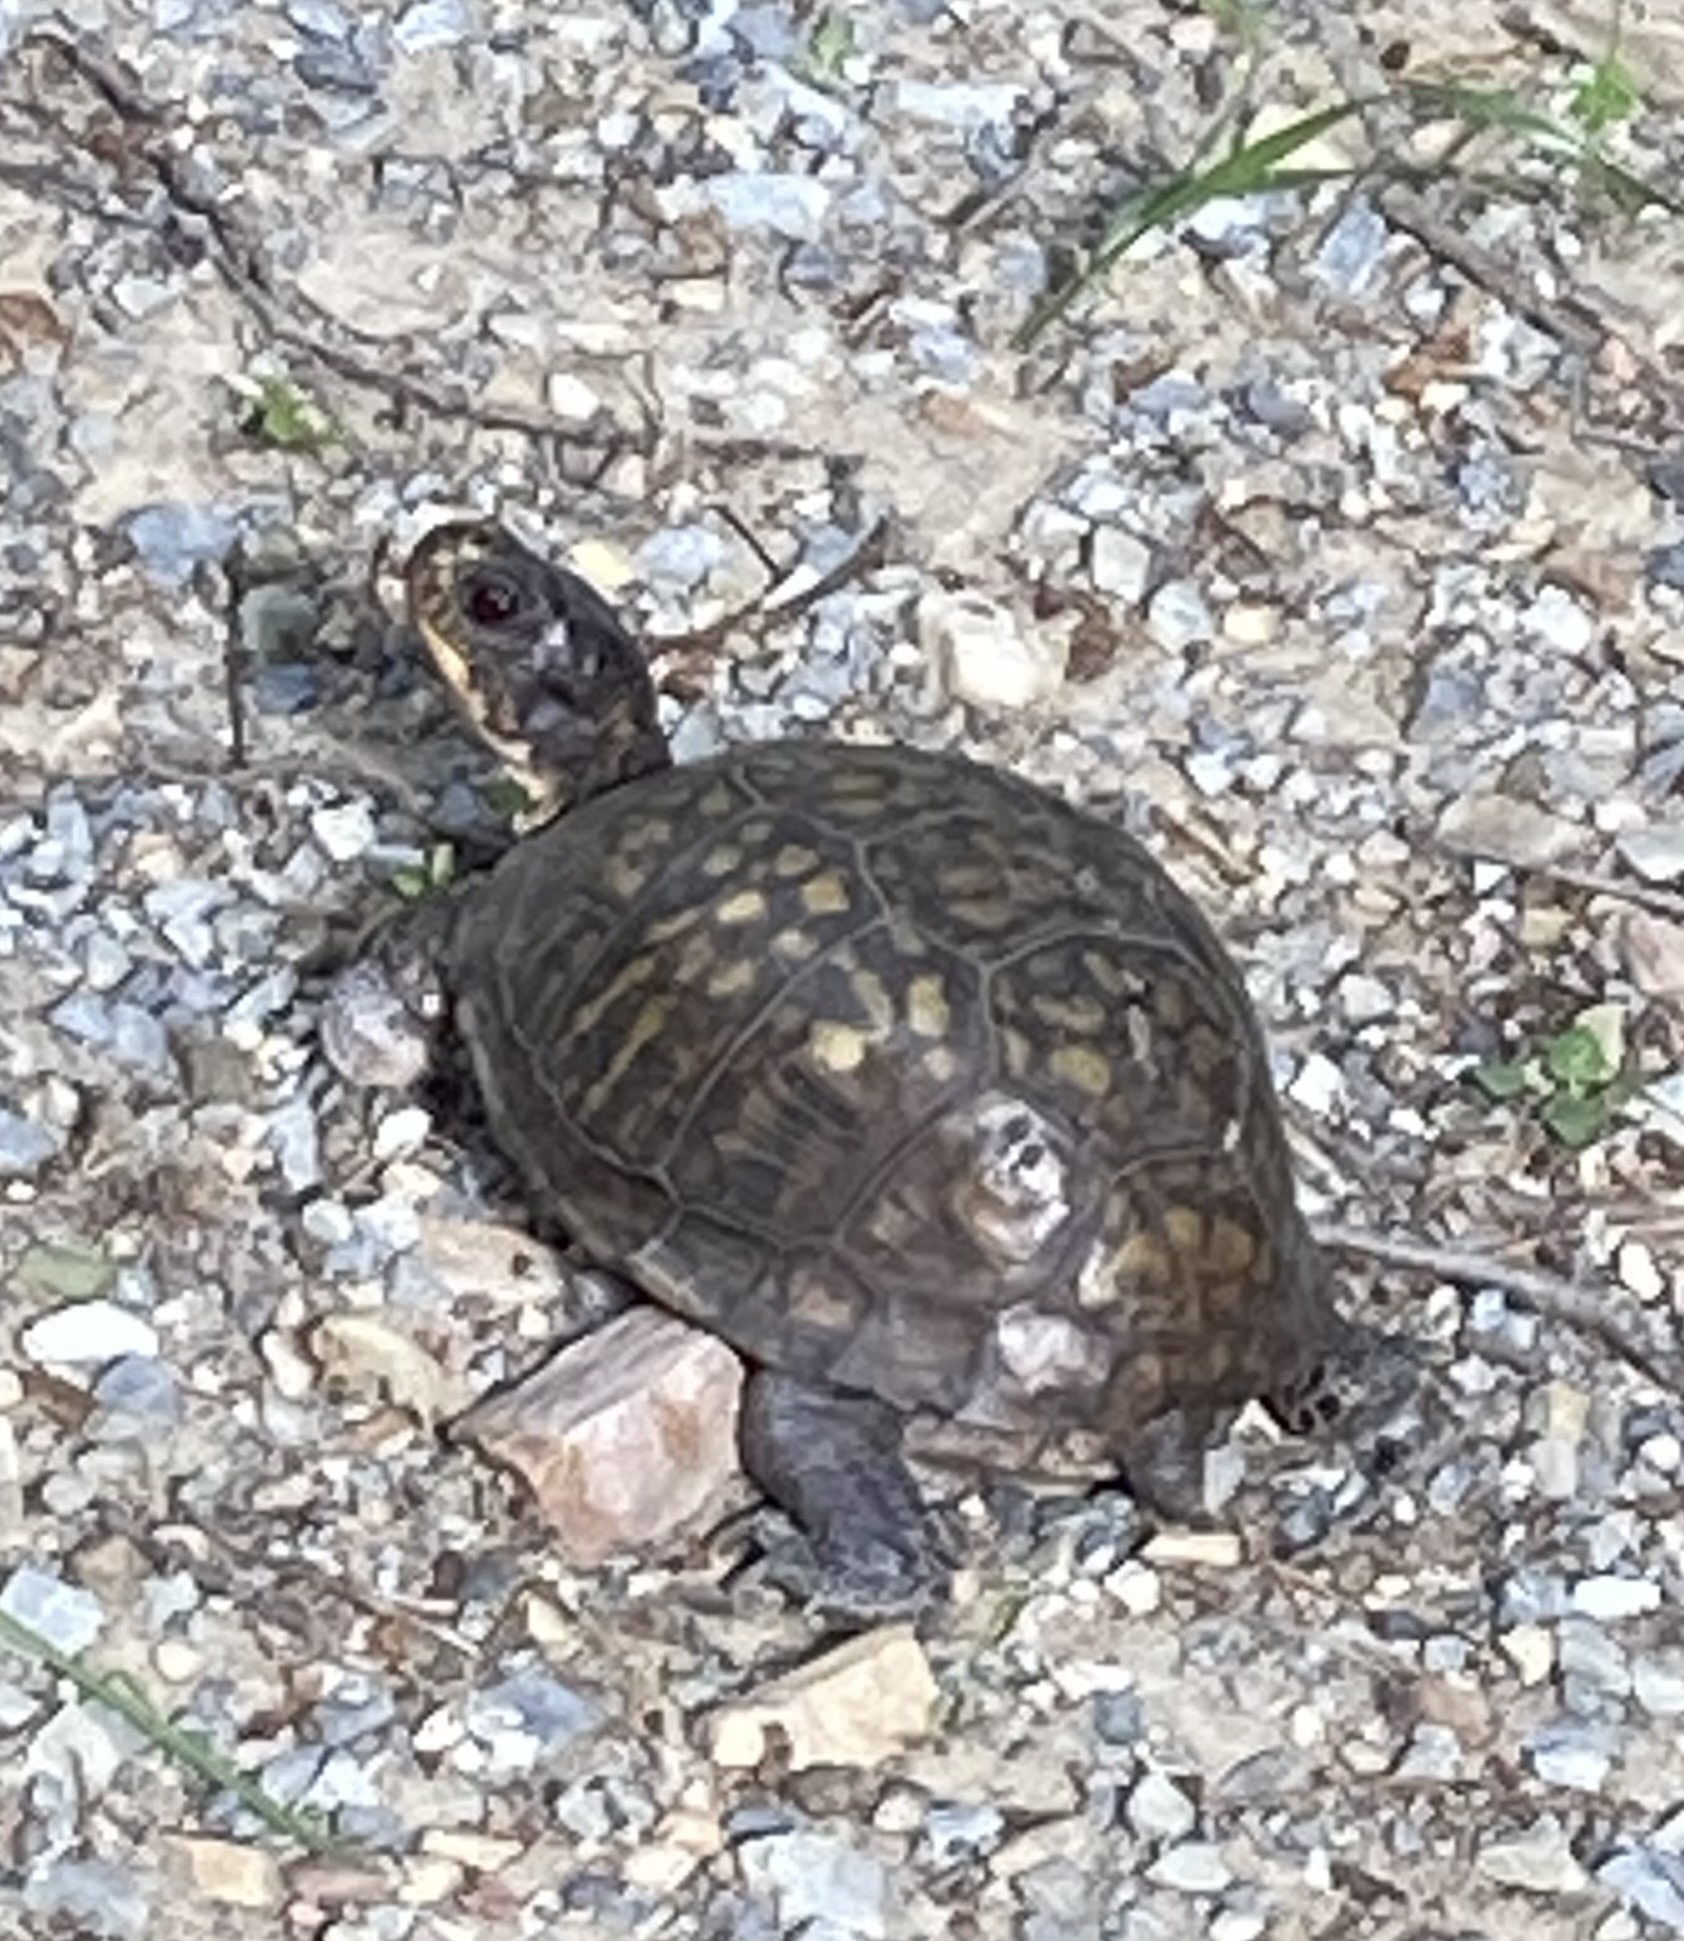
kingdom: Animalia
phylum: Chordata
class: Testudines
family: Emydidae
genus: Terrapene
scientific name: Terrapene carolina
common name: Common box turtle
